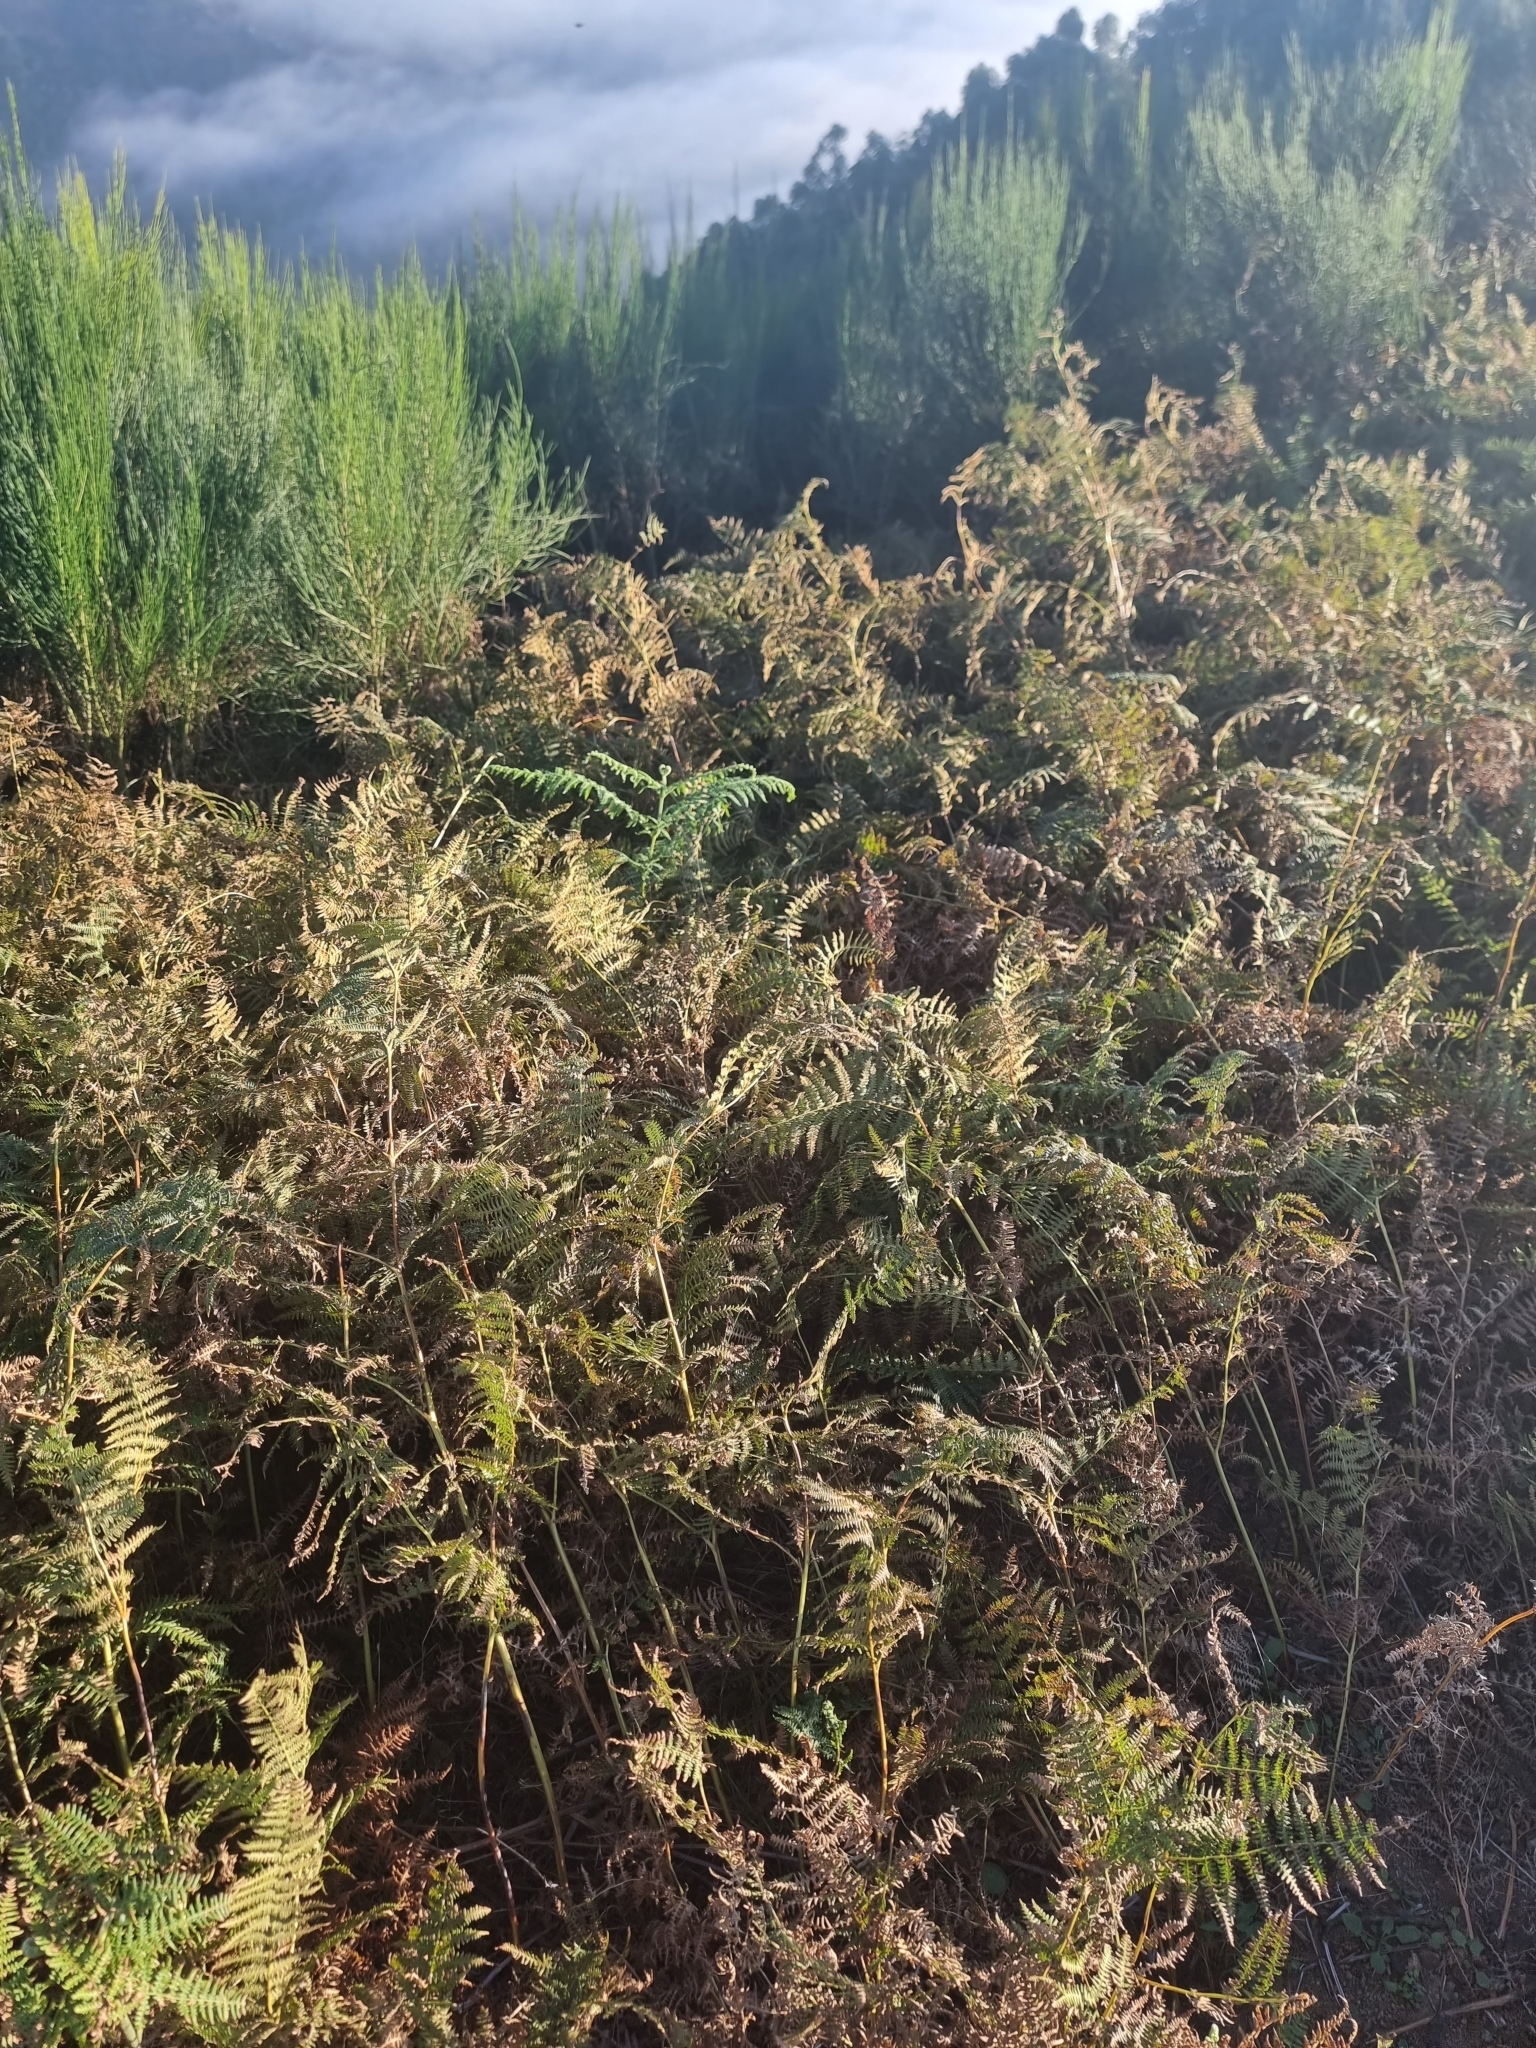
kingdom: Plantae
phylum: Tracheophyta
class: Polypodiopsida
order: Polypodiales
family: Dennstaedtiaceae
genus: Pteridium
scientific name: Pteridium aquilinum
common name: Bracken
